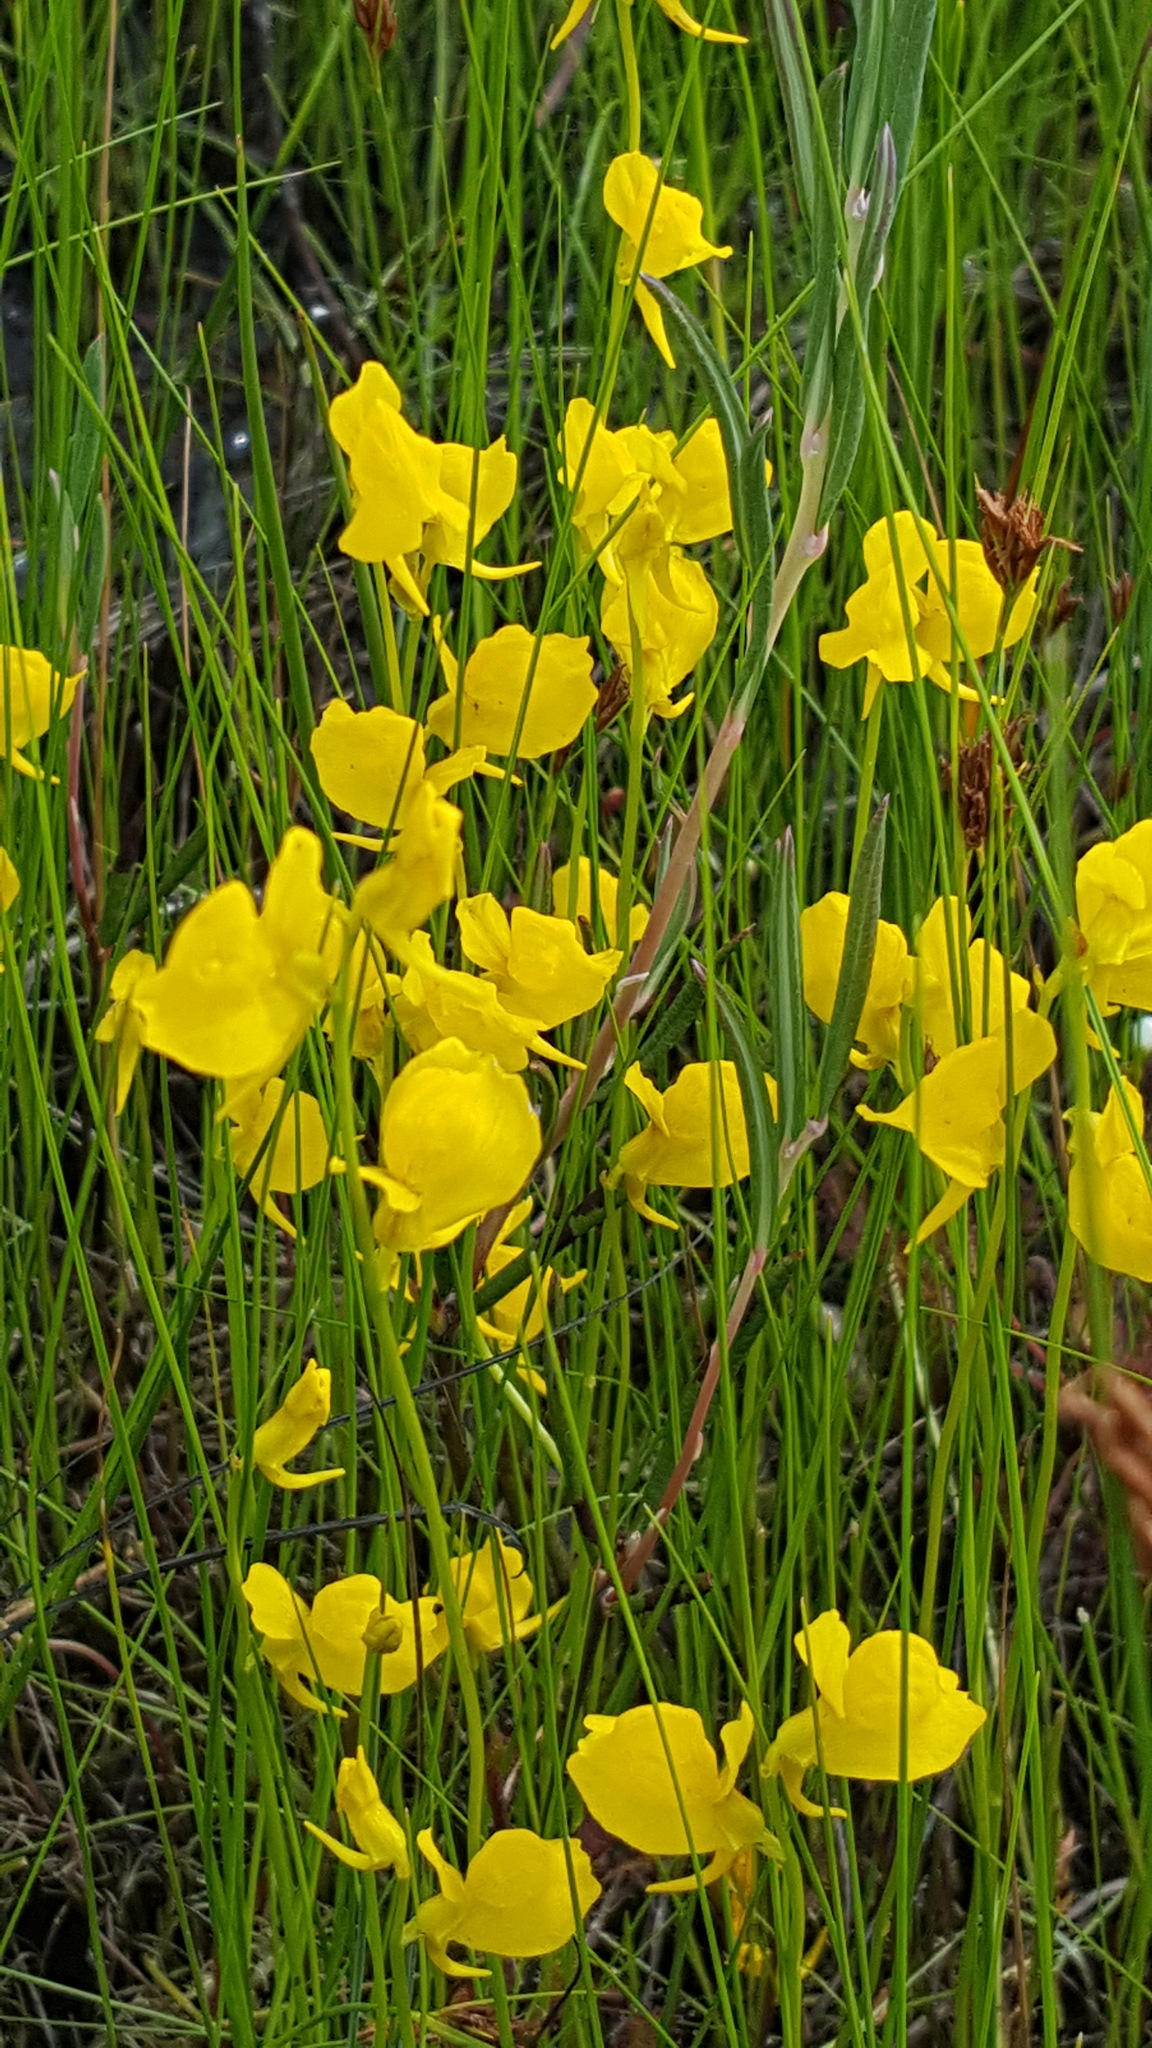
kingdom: Plantae
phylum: Tracheophyta
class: Magnoliopsida
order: Lamiales
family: Lentibulariaceae
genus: Utricularia
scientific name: Utricularia cornuta
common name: Horned bladderwort
